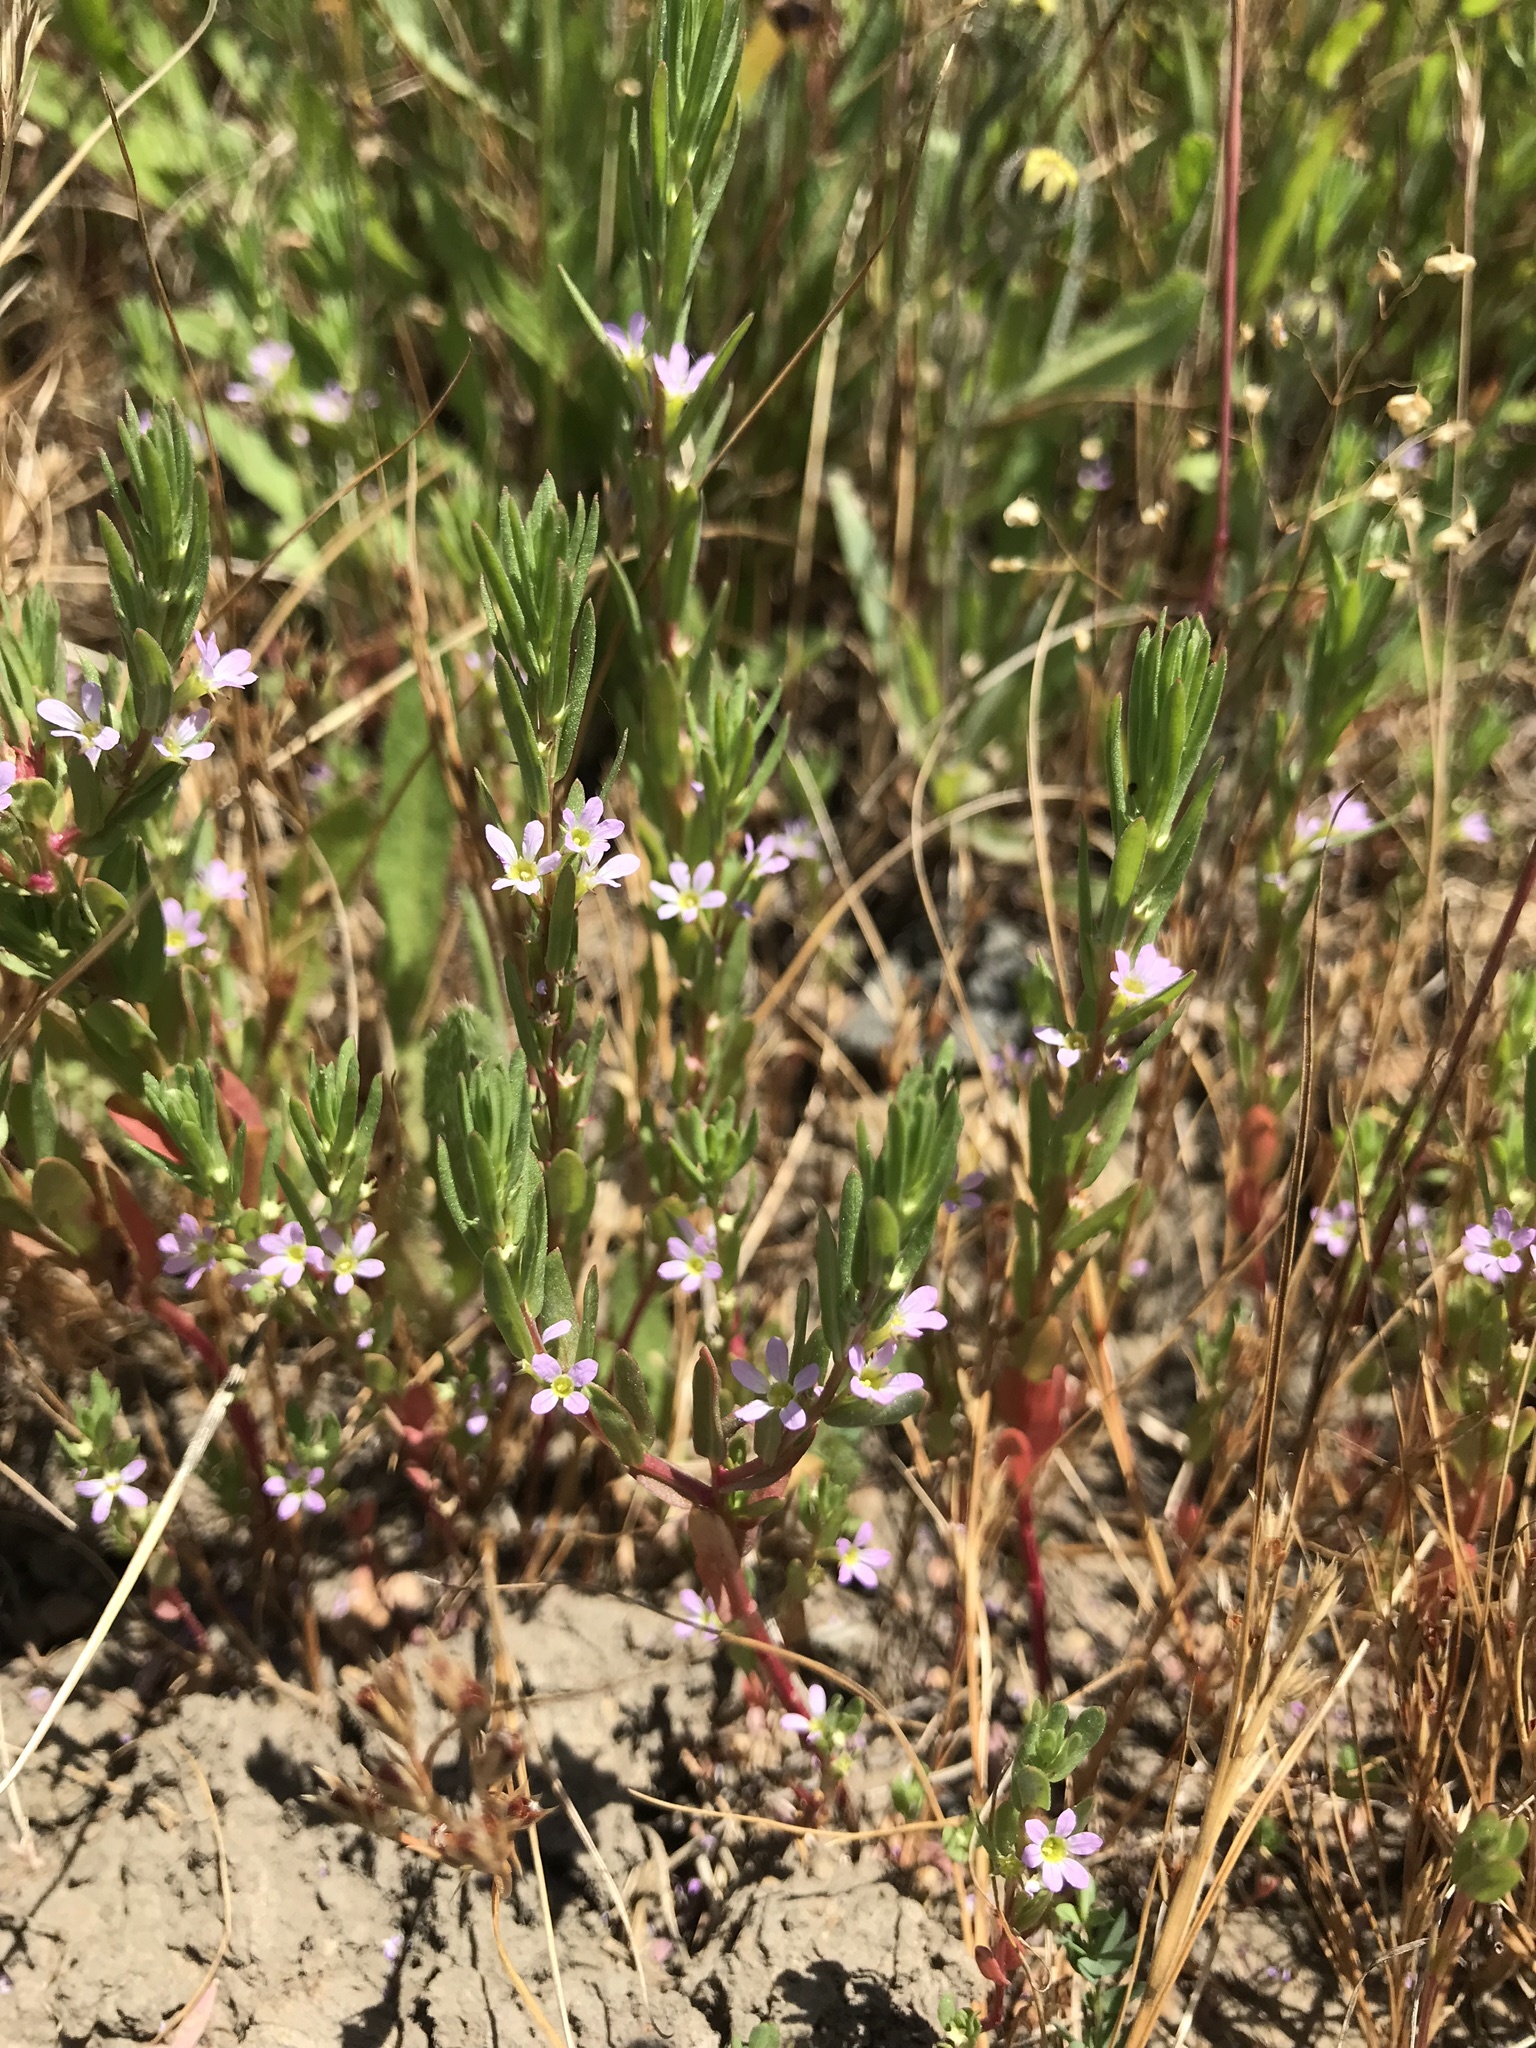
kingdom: Plantae
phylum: Tracheophyta
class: Magnoliopsida
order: Myrtales
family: Lythraceae
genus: Lythrum
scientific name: Lythrum hyssopifolia
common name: Grass-poly
